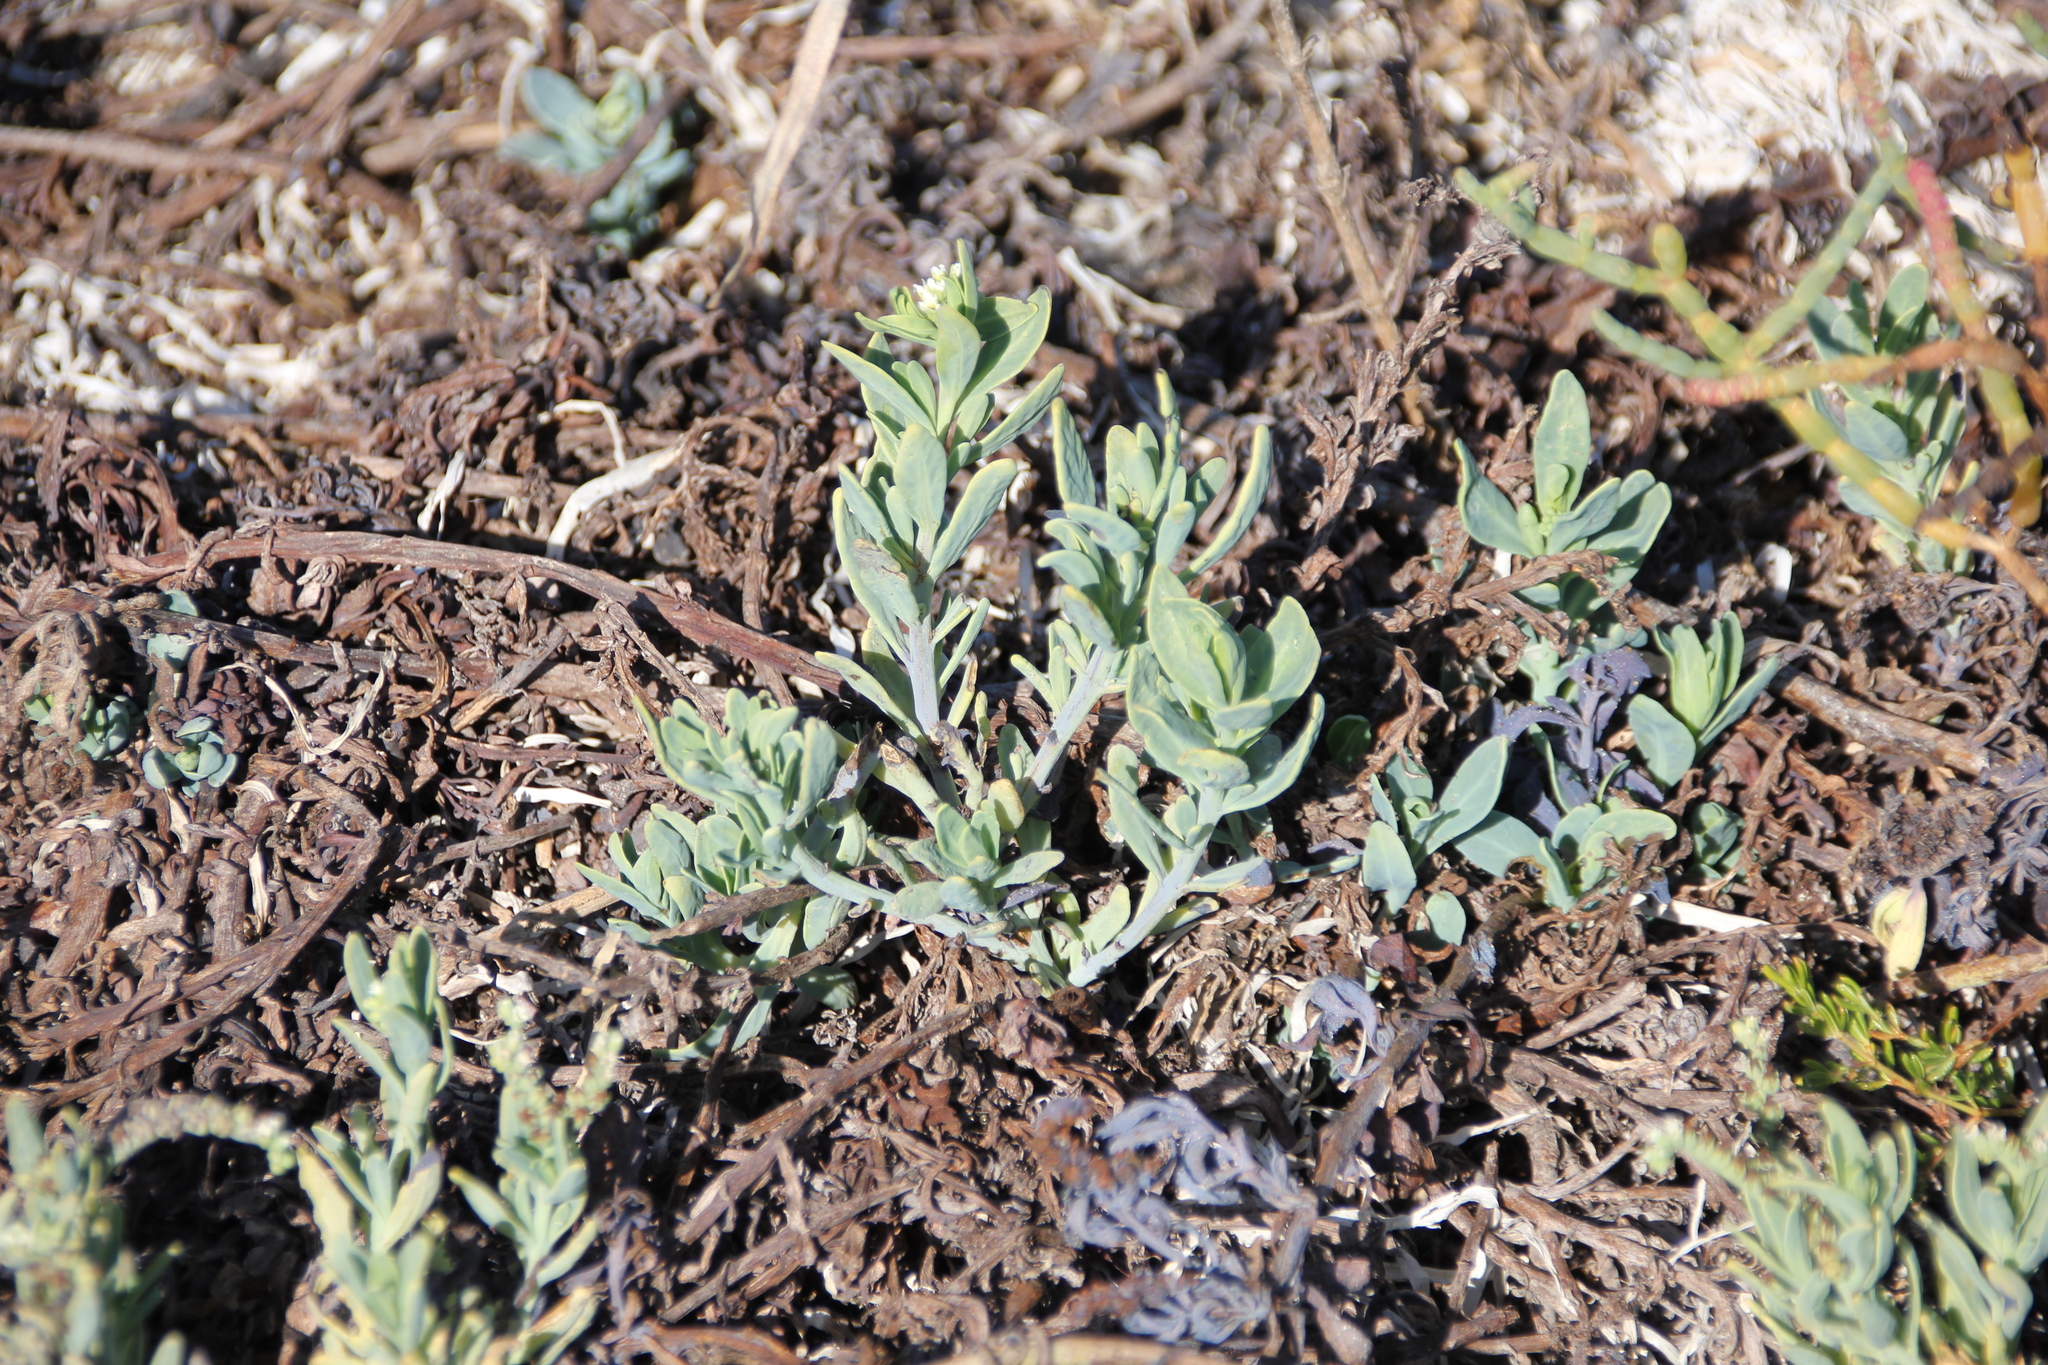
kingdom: Plantae
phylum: Tracheophyta
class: Magnoliopsida
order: Boraginales
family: Heliotropiaceae
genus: Heliotropium
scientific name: Heliotropium curassavicum
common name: Seaside heliotrope
